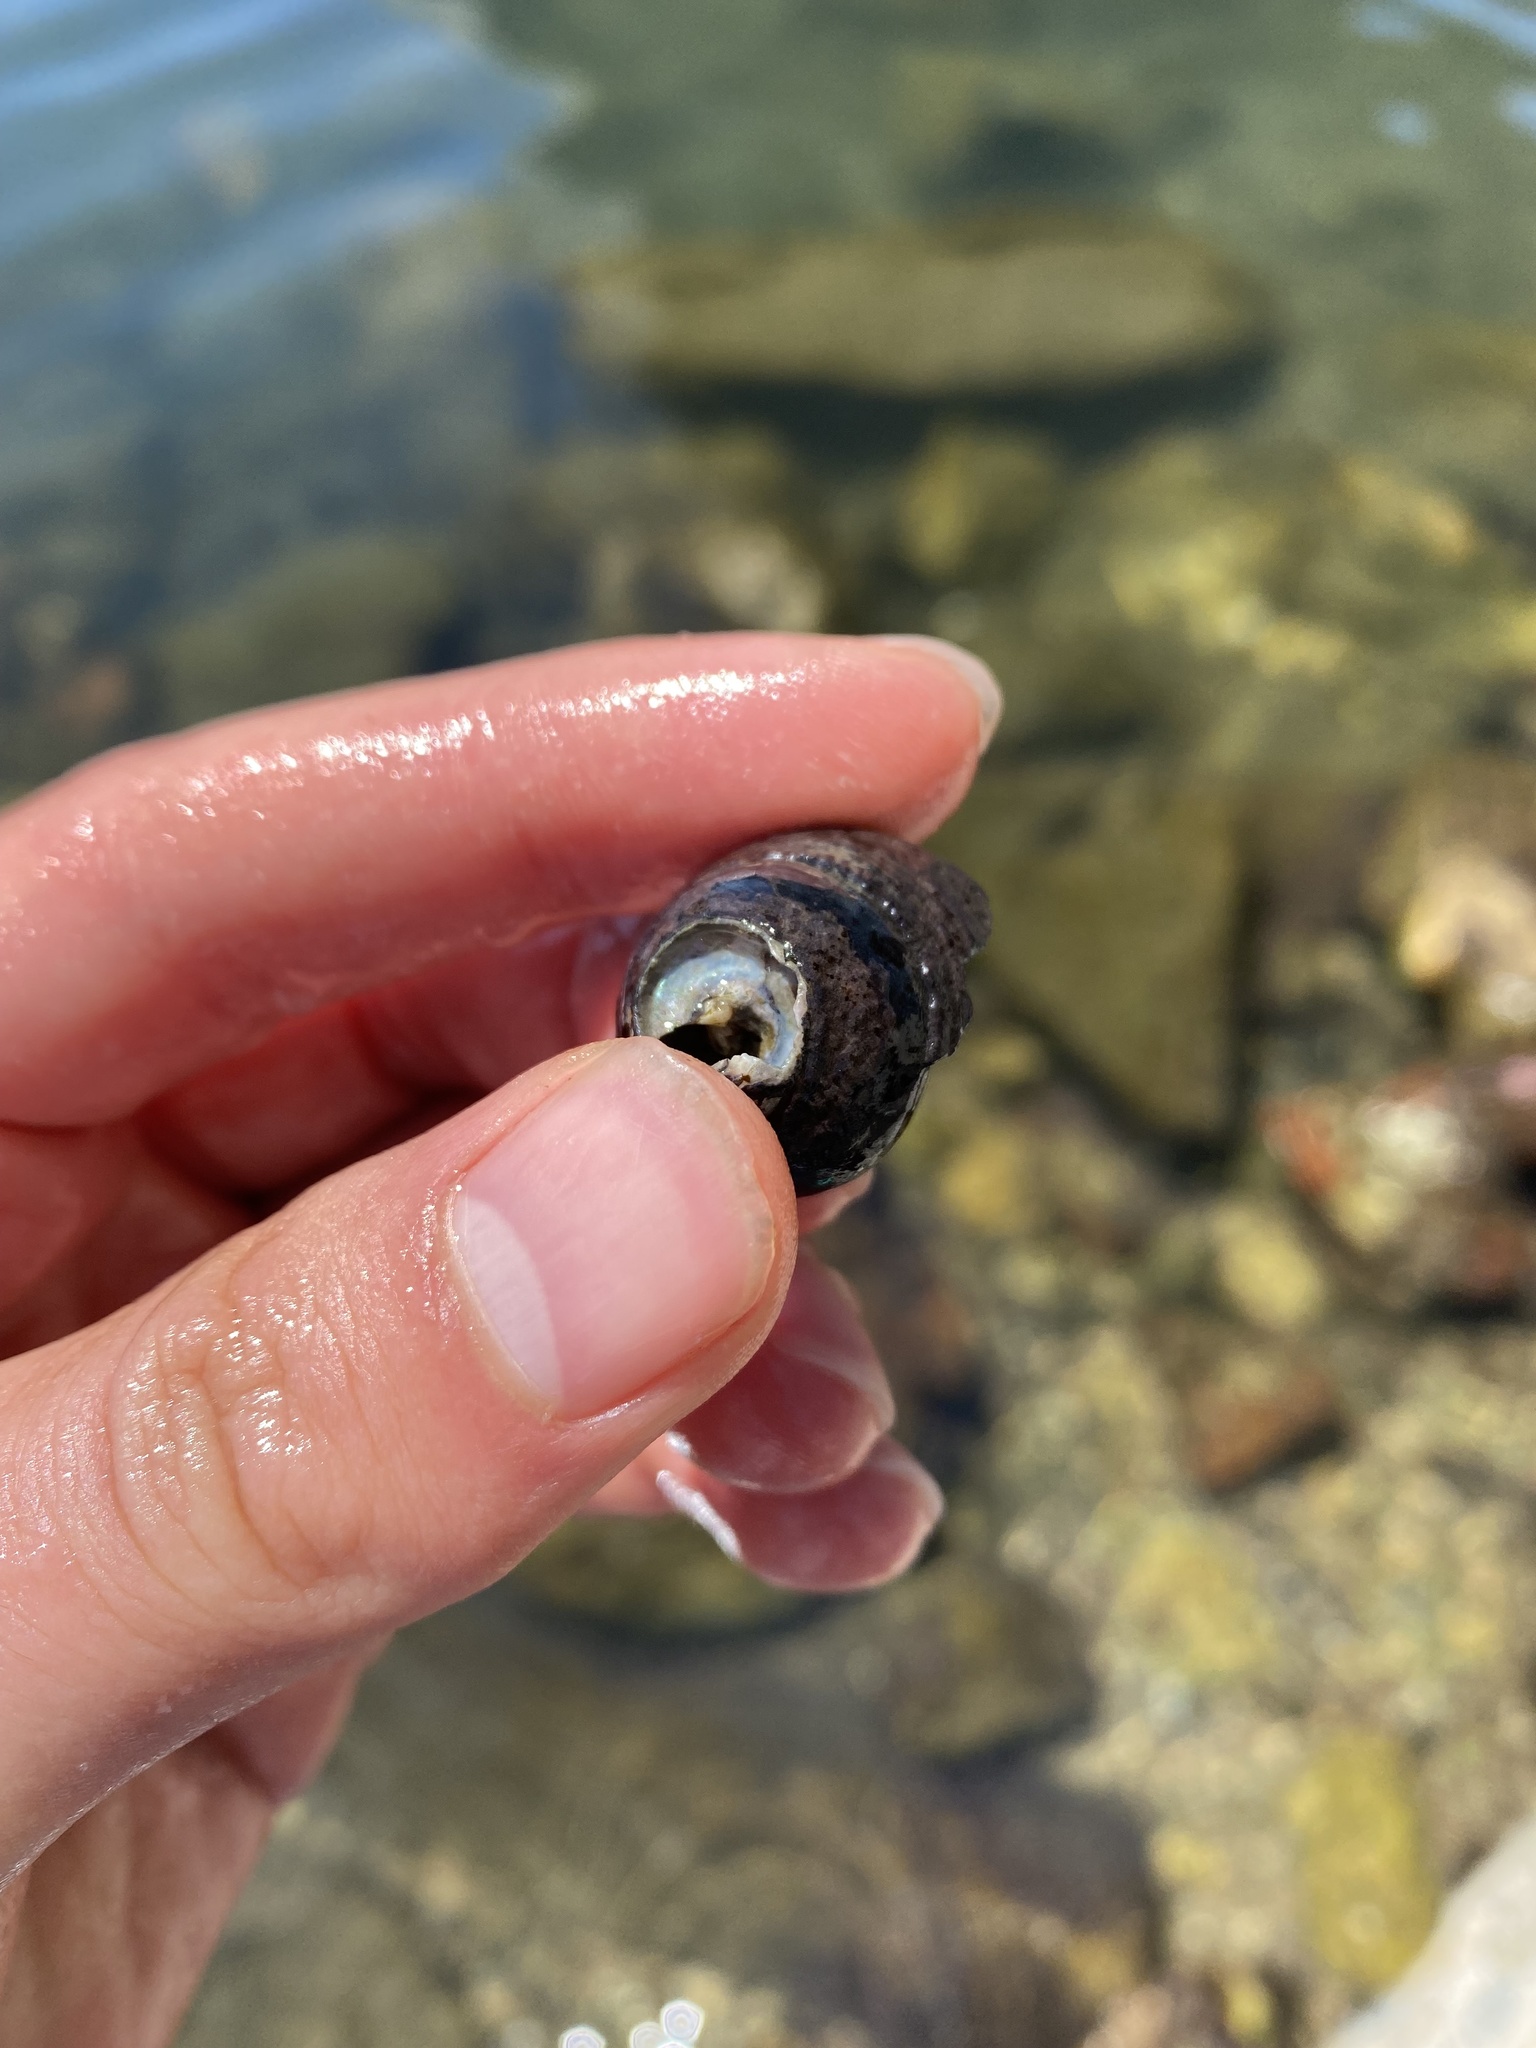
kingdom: Animalia
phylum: Mollusca
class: Gastropoda
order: Trochida
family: Tegulidae
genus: Tegula
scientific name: Tegula funebralis
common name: Black tegula
